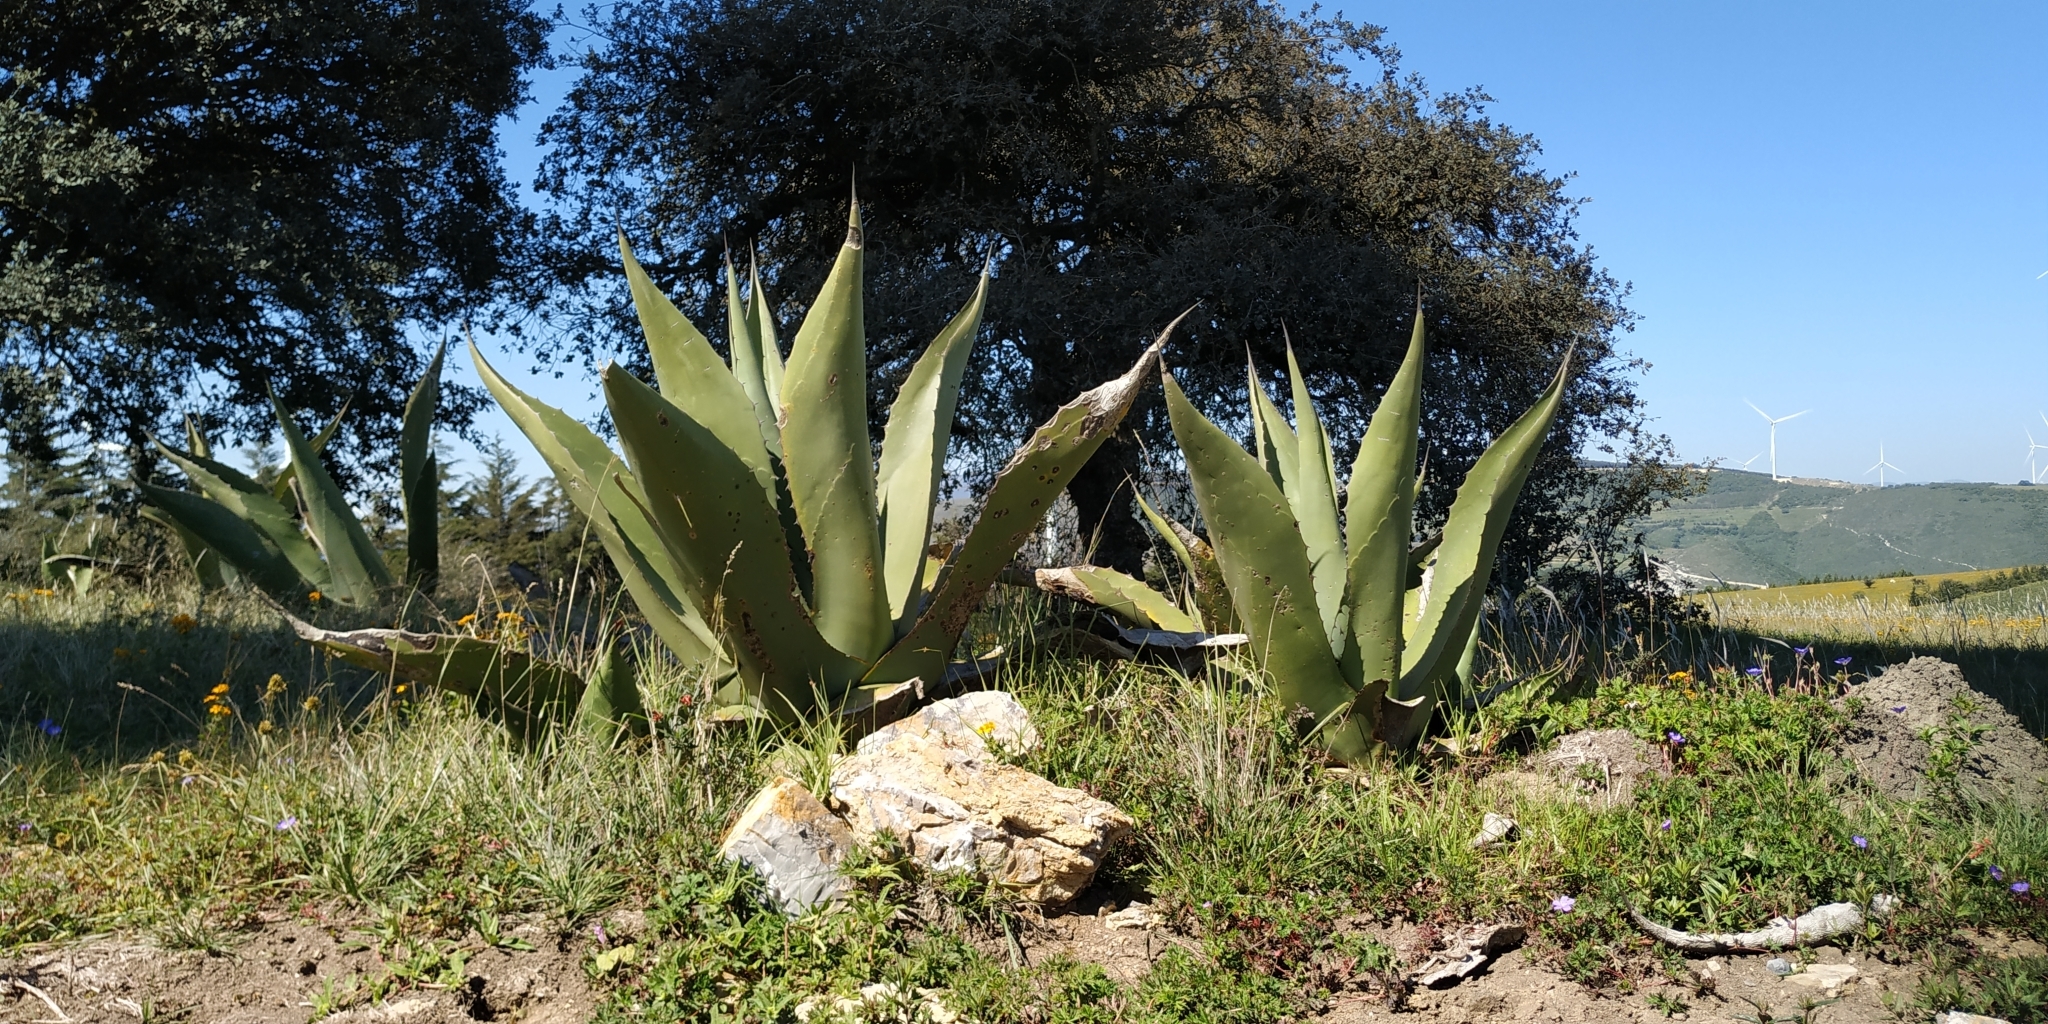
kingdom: Plantae
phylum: Tracheophyta
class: Liliopsida
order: Asparagales
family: Asparagaceae
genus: Agave
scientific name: Agave salmiana
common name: Pulque agave
